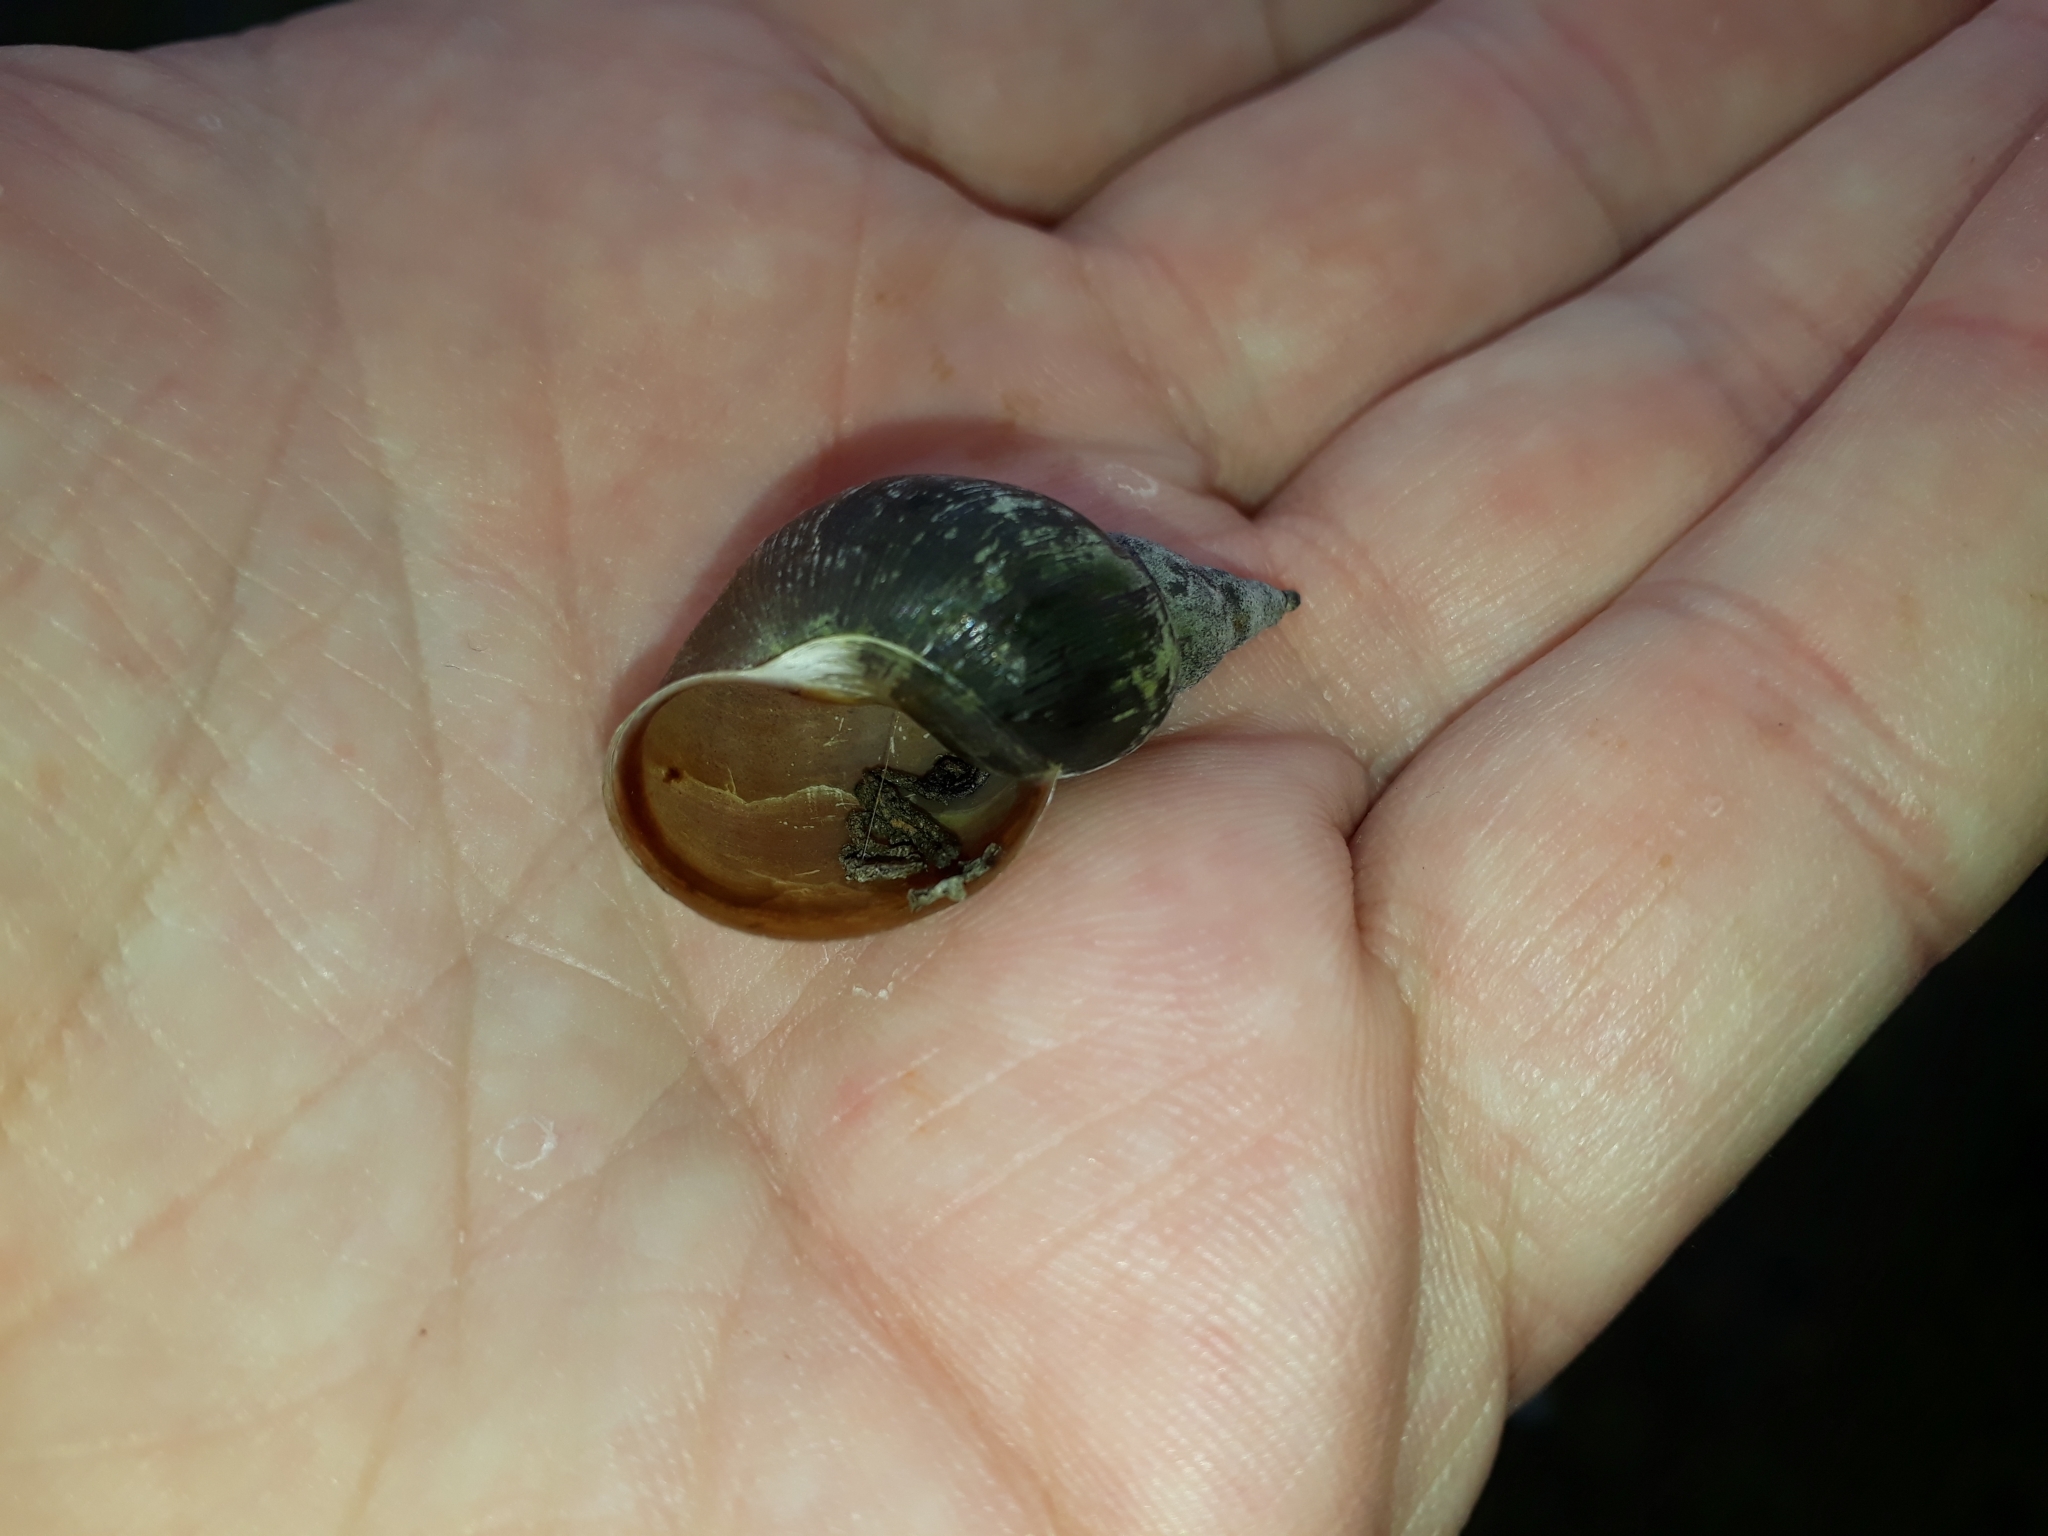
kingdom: Animalia
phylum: Mollusca
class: Gastropoda
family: Lymnaeidae
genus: Lymnaea
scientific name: Lymnaea stagnalis
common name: Great pond snail
